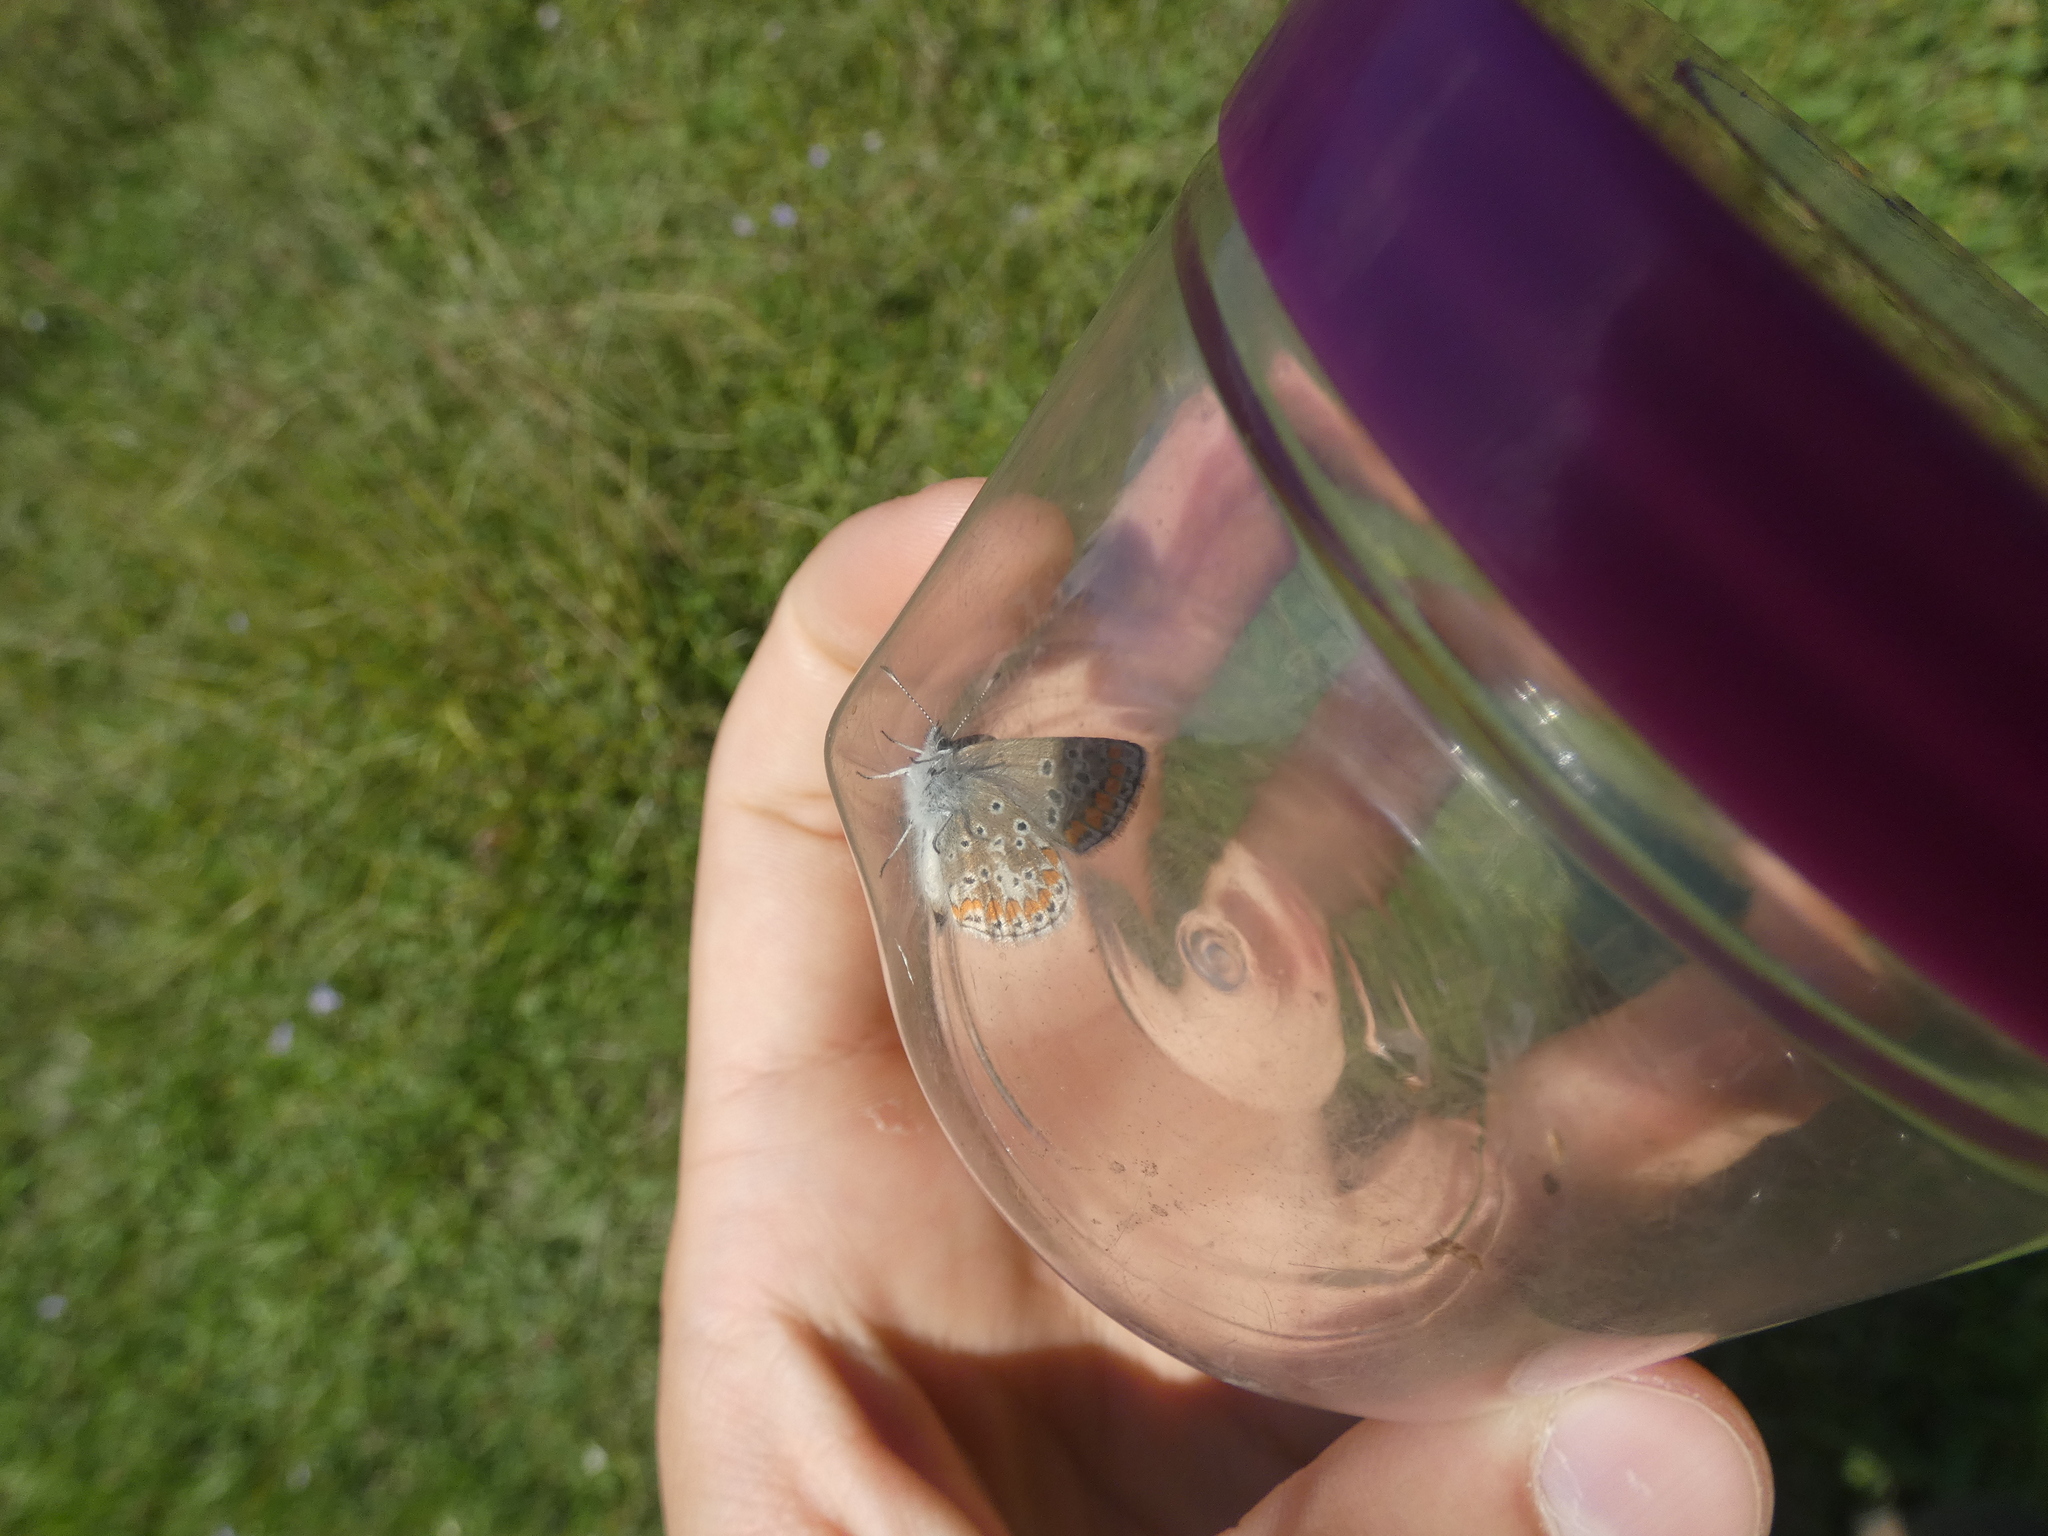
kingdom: Animalia
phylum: Arthropoda
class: Insecta
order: Lepidoptera
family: Lycaenidae
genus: Aricia
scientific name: Aricia agestis
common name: Brown argus
